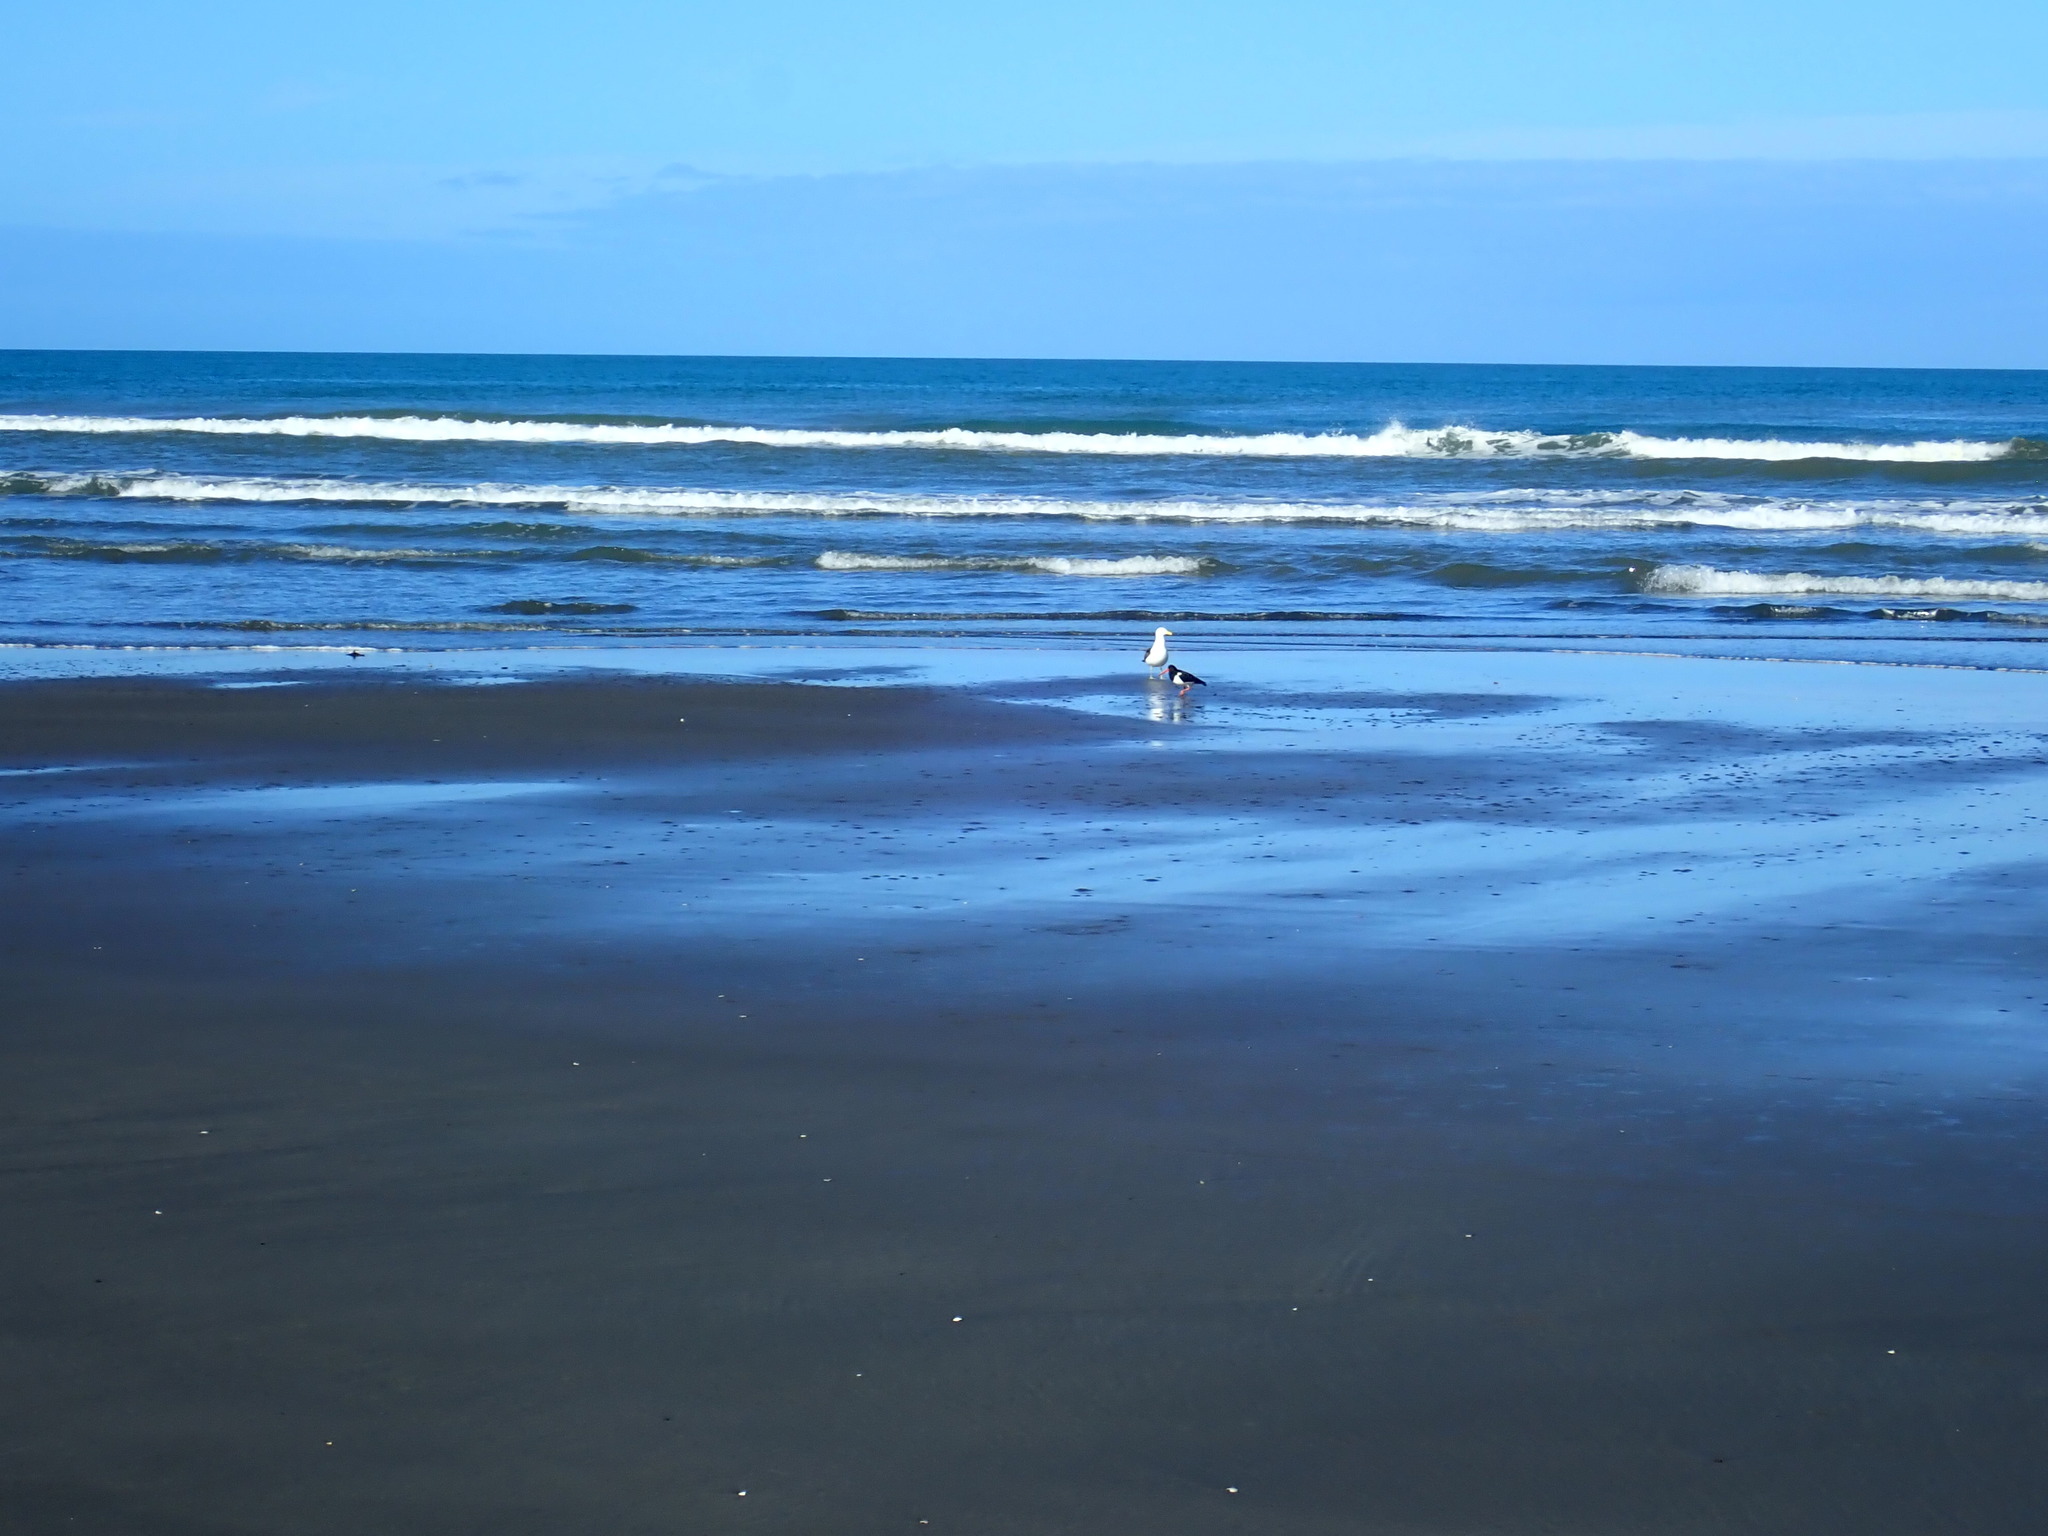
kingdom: Animalia
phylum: Chordata
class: Aves
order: Charadriiformes
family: Haematopodidae
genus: Haematopus
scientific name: Haematopus finschi
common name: South island oystercatcher
